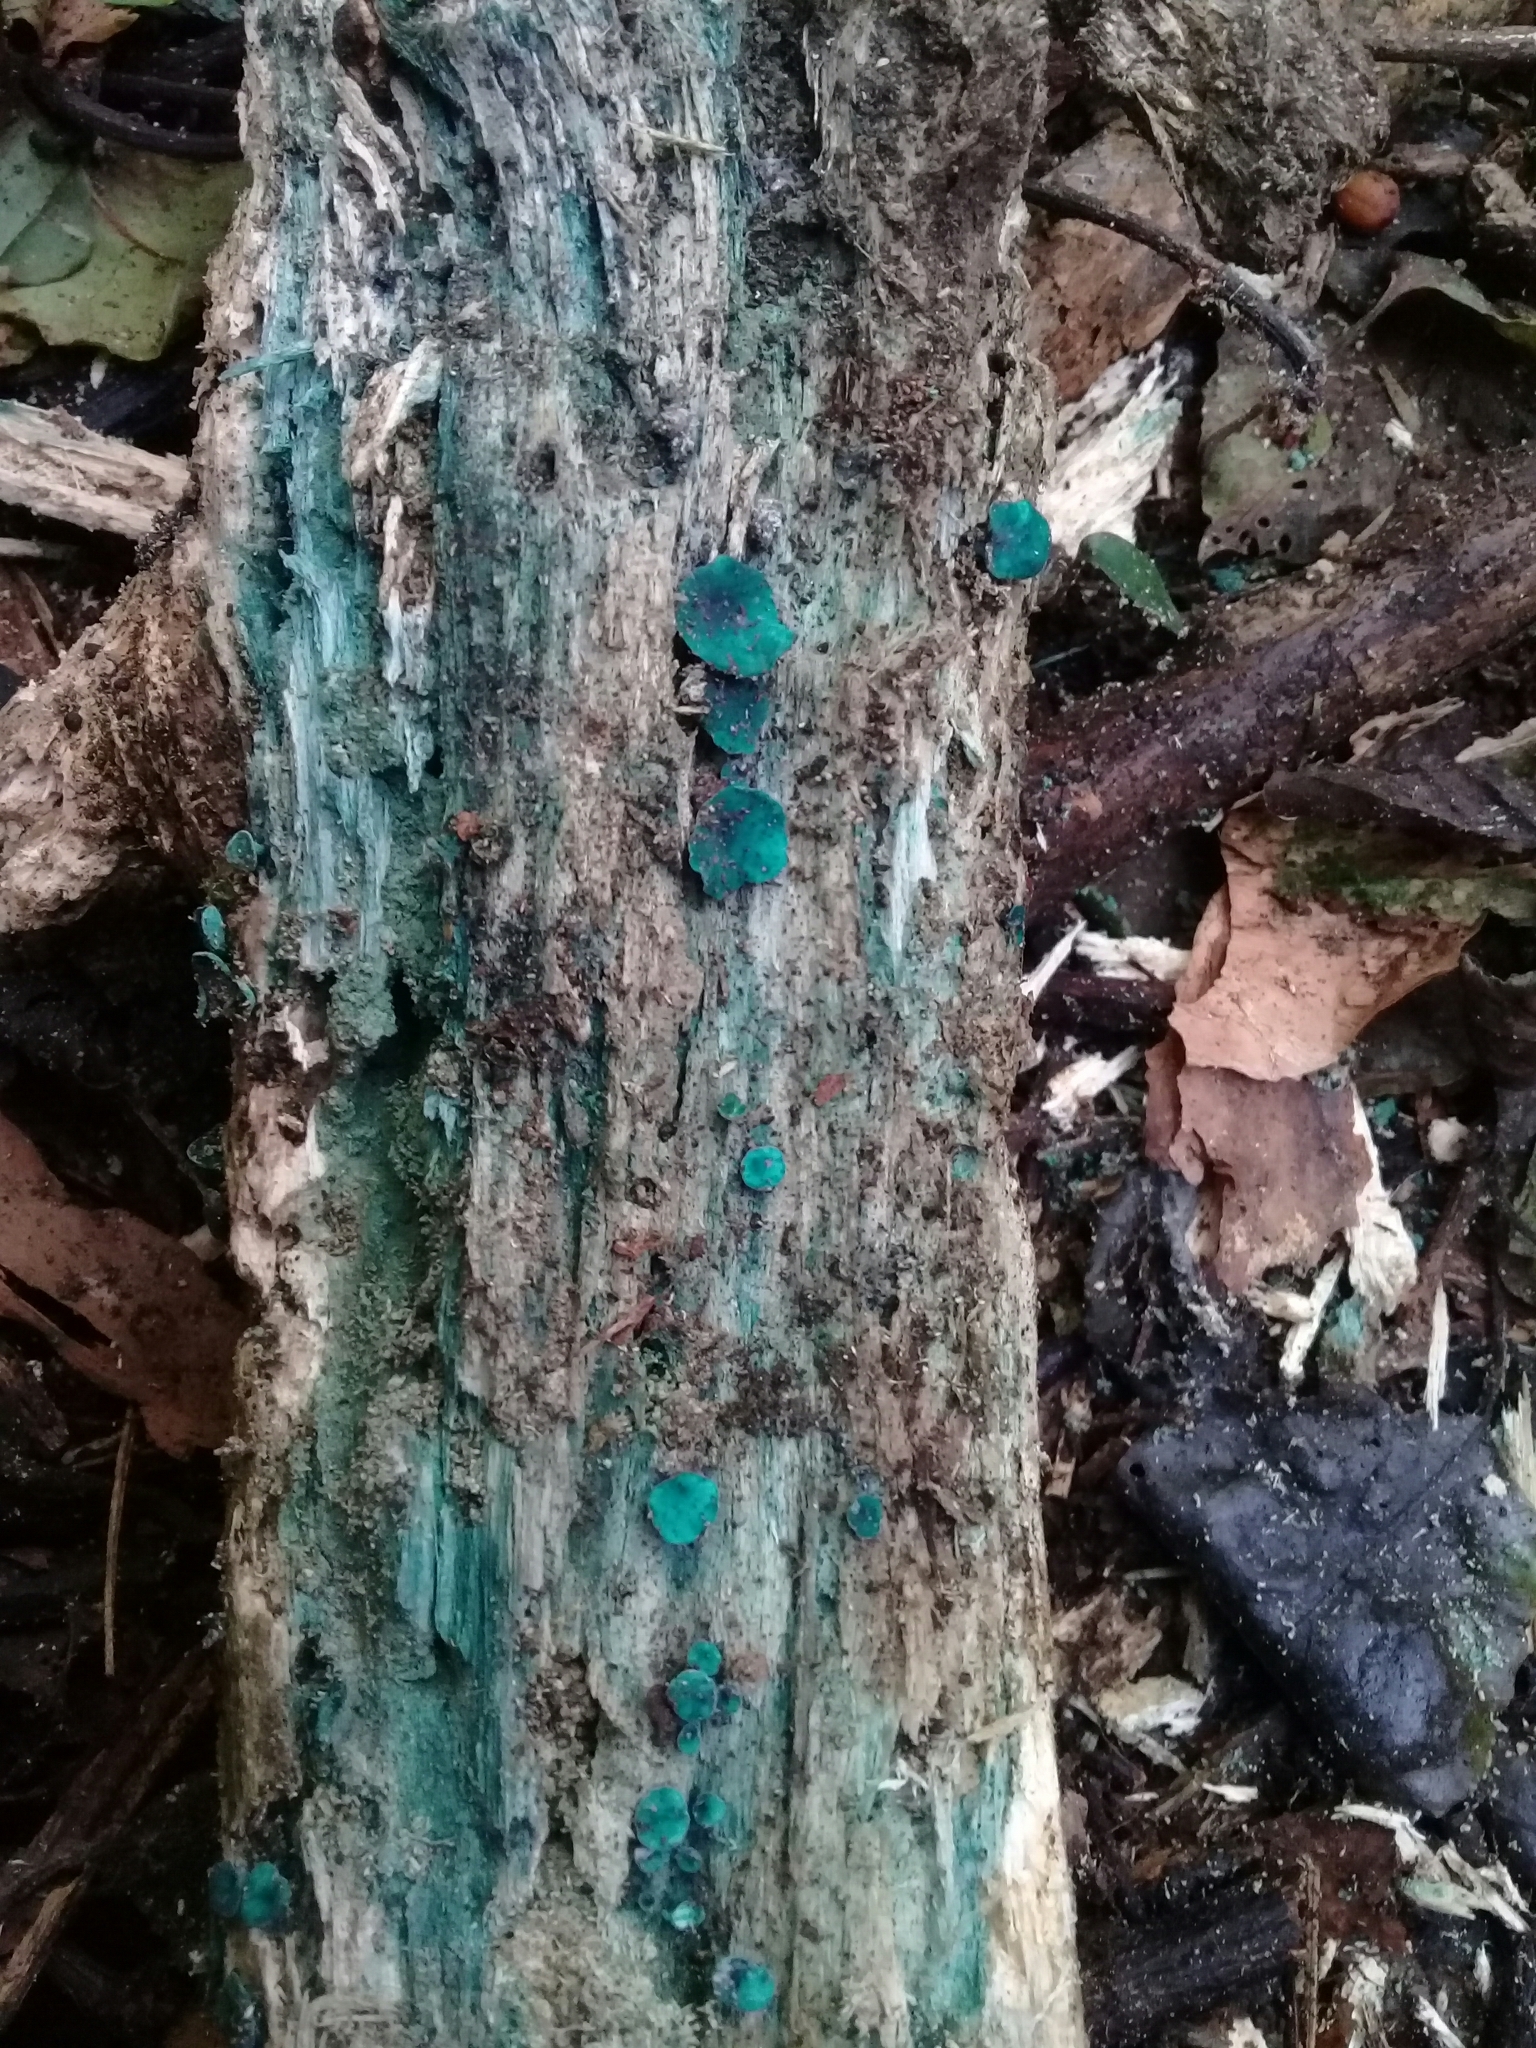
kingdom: Fungi
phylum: Ascomycota
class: Leotiomycetes
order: Helotiales
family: Chlorociboriaceae
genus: Chlorociboria
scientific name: Chlorociboria
